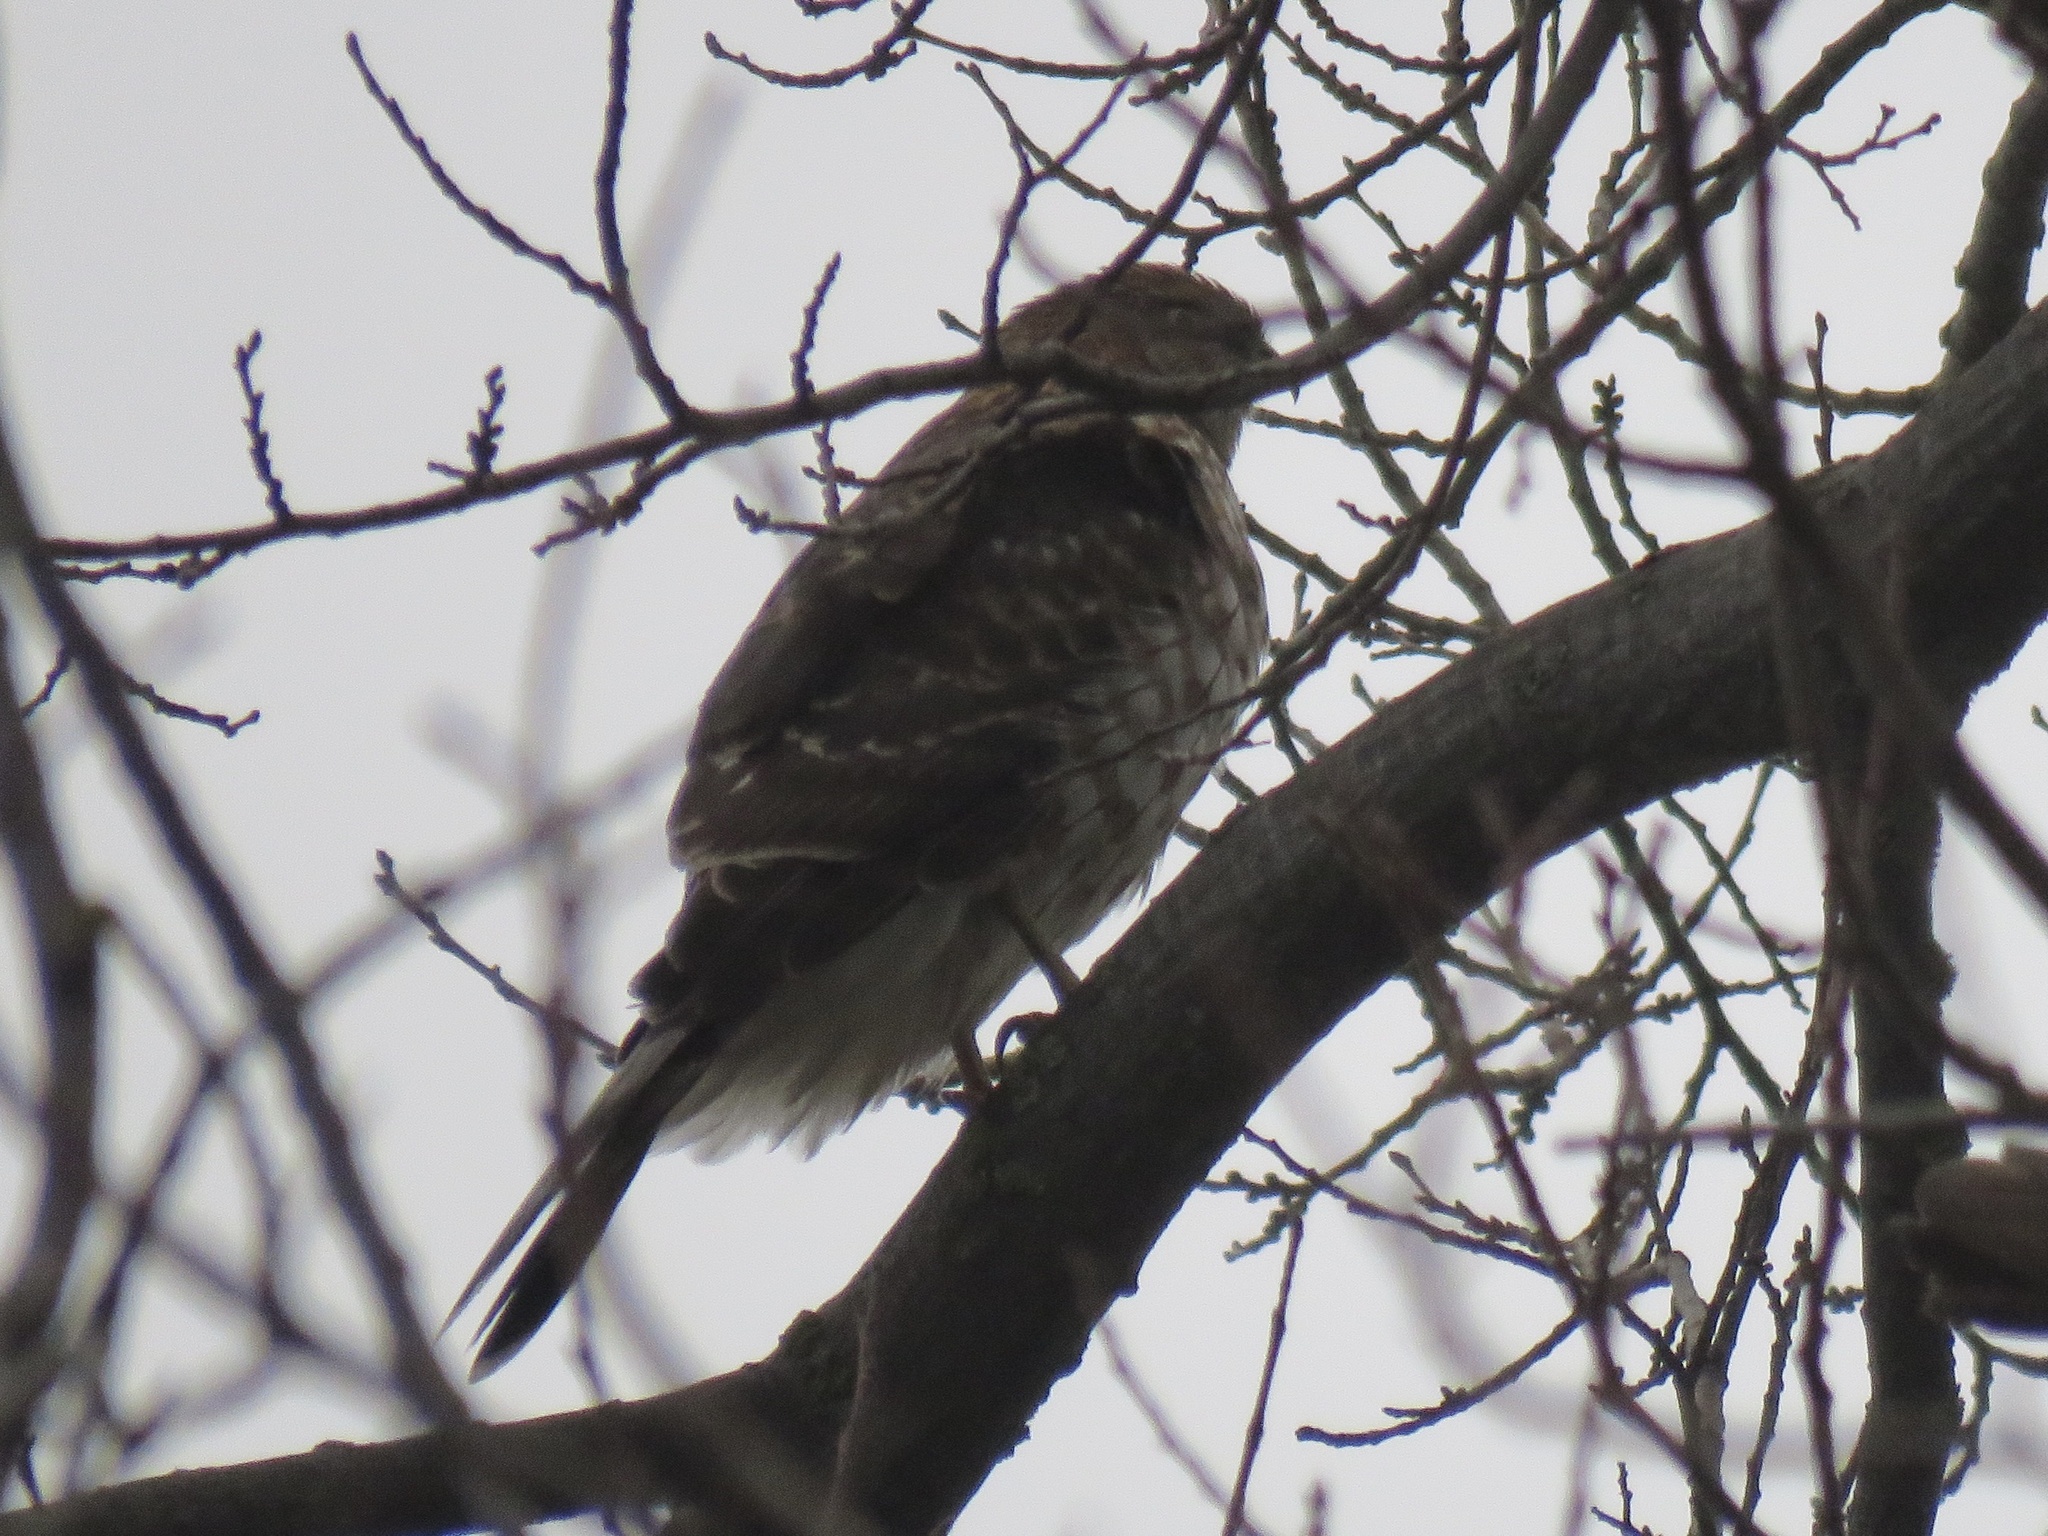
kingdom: Animalia
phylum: Chordata
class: Aves
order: Accipitriformes
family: Accipitridae
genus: Accipiter
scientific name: Accipiter cooperii
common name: Cooper's hawk
